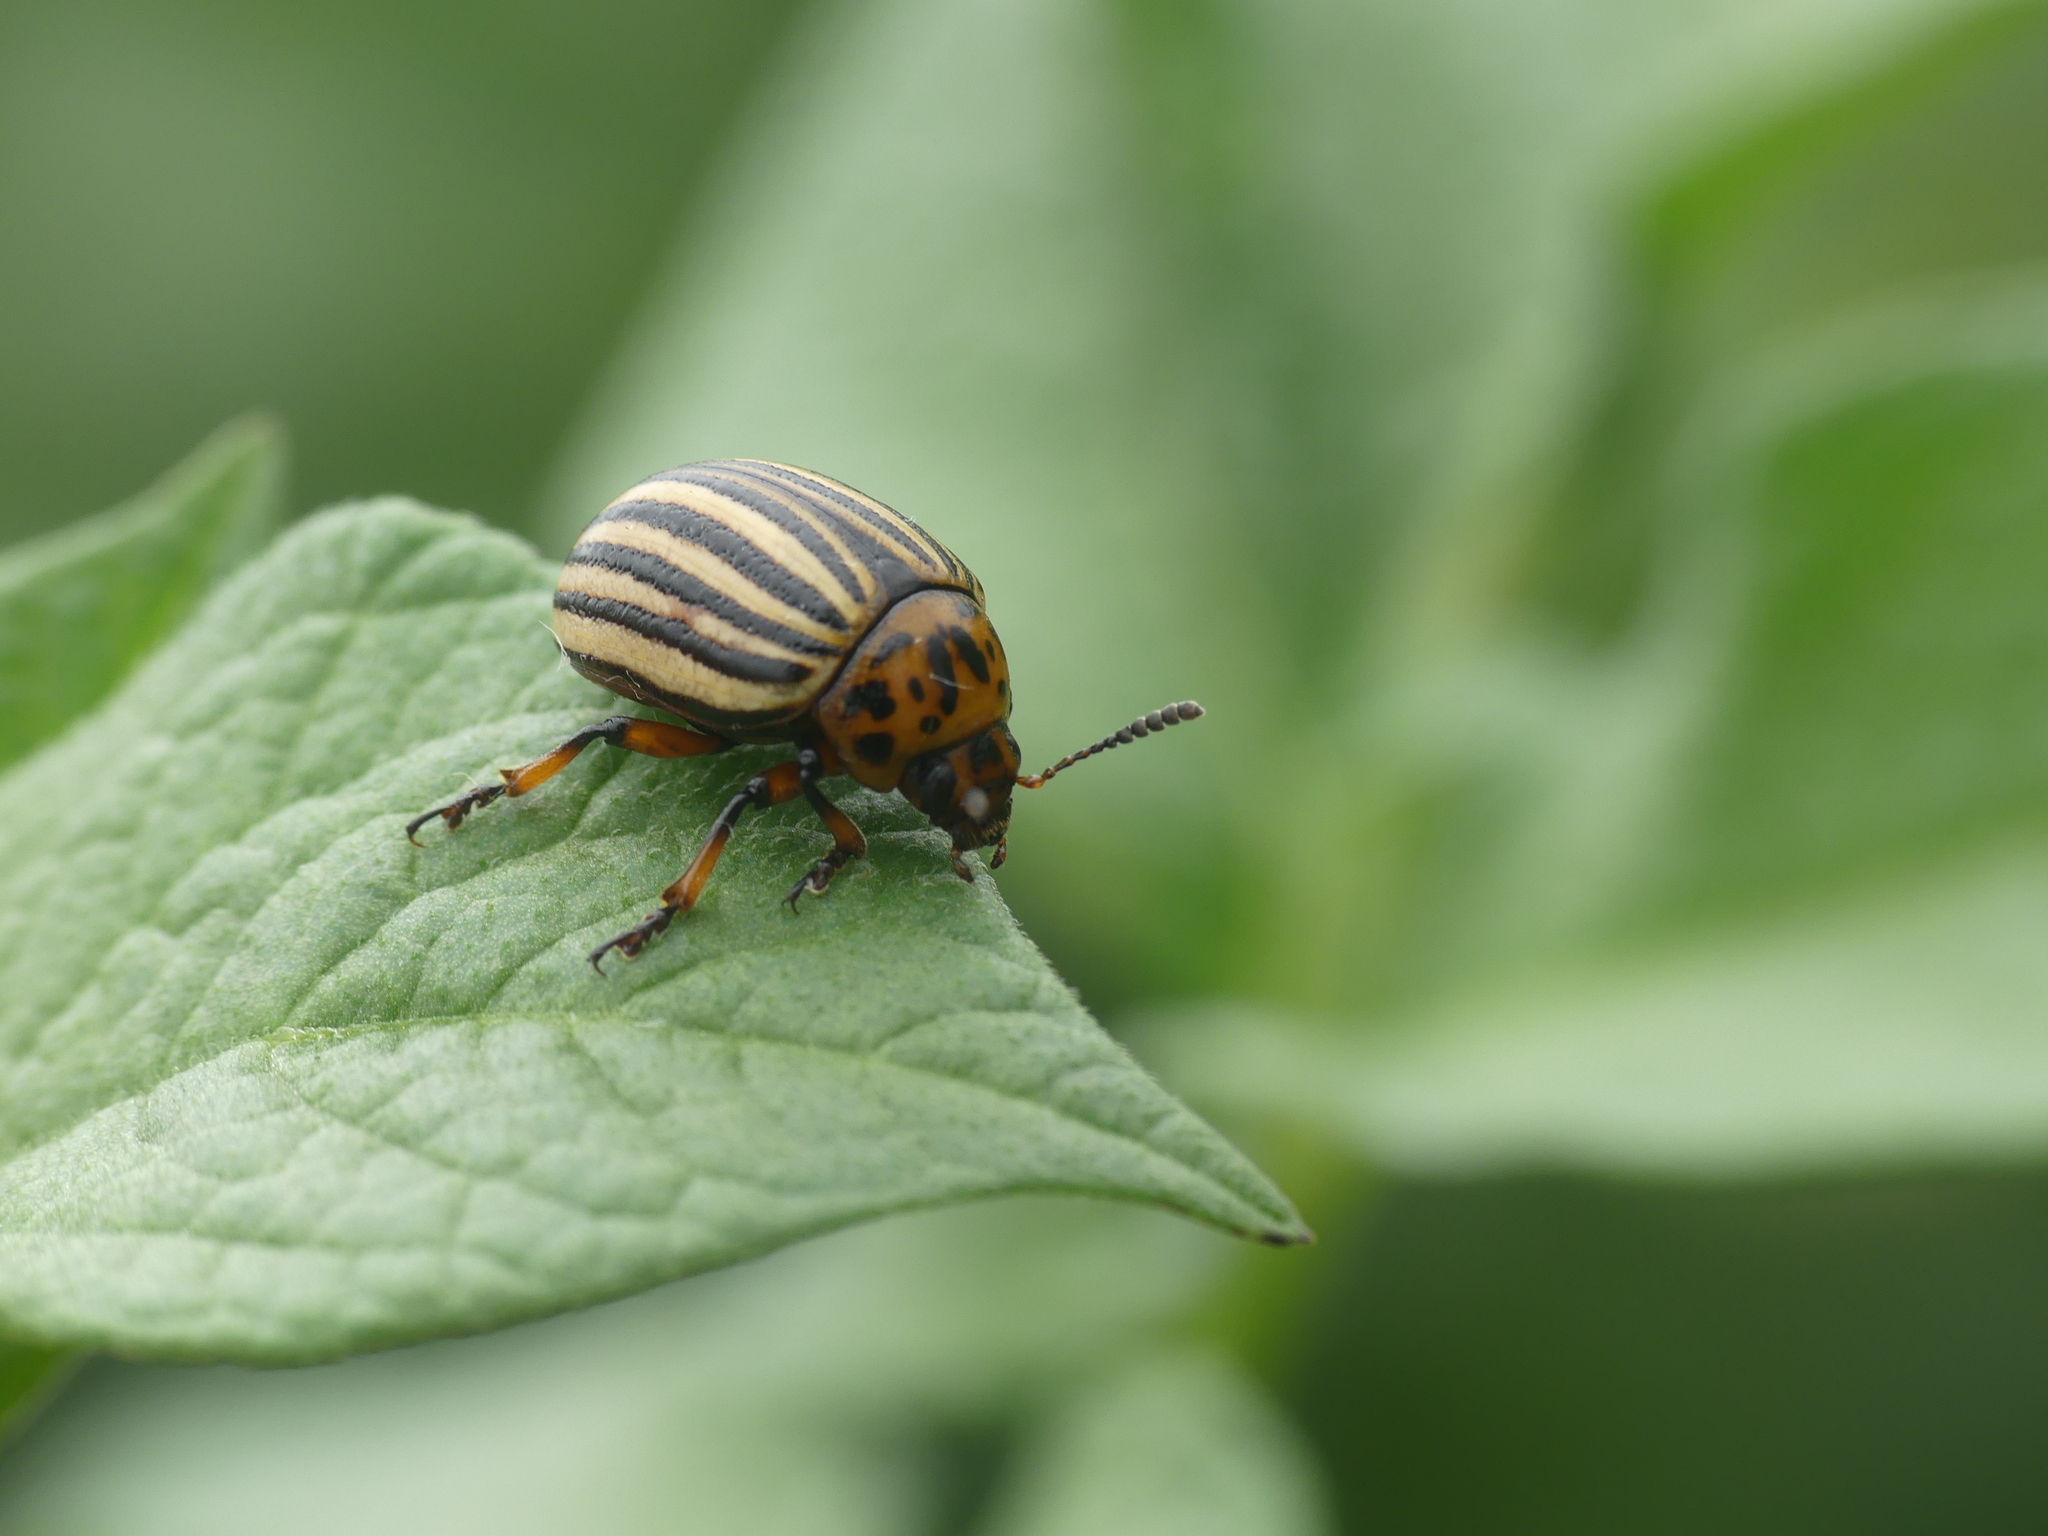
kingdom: Animalia
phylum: Arthropoda
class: Insecta
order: Coleoptera
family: Chrysomelidae
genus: Leptinotarsa
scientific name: Leptinotarsa decemlineata
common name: Colorado potato beetle
